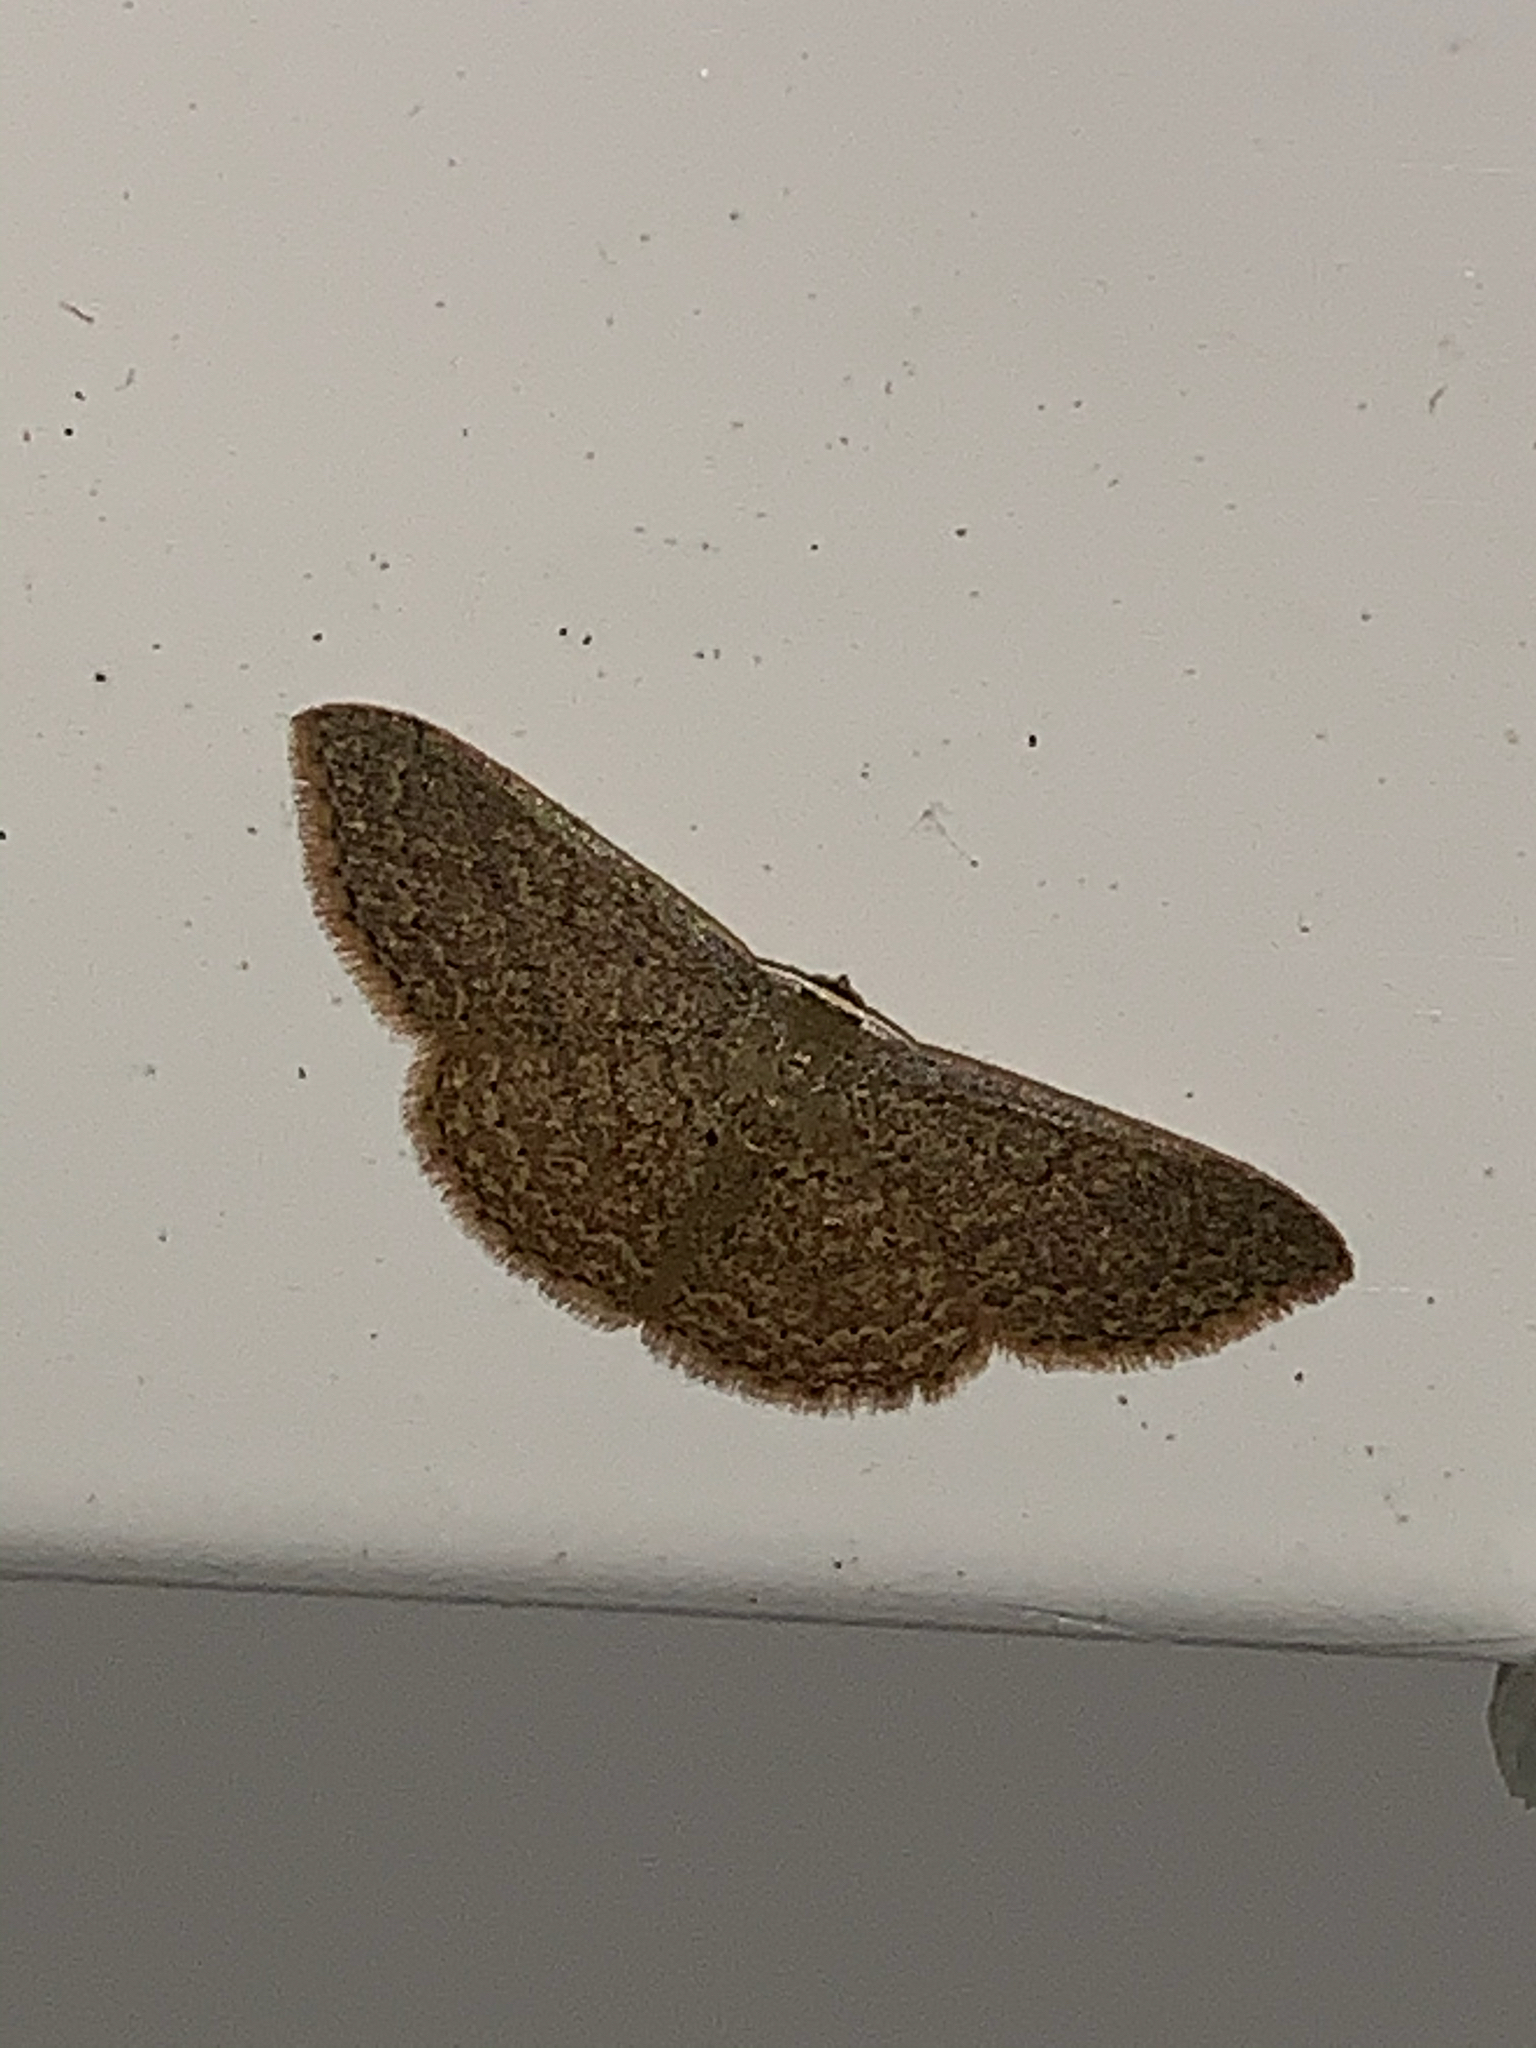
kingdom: Animalia
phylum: Arthropoda
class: Insecta
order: Lepidoptera
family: Geometridae
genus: Pleuroprucha
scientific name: Pleuroprucha insulsaria
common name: Common tan wave
